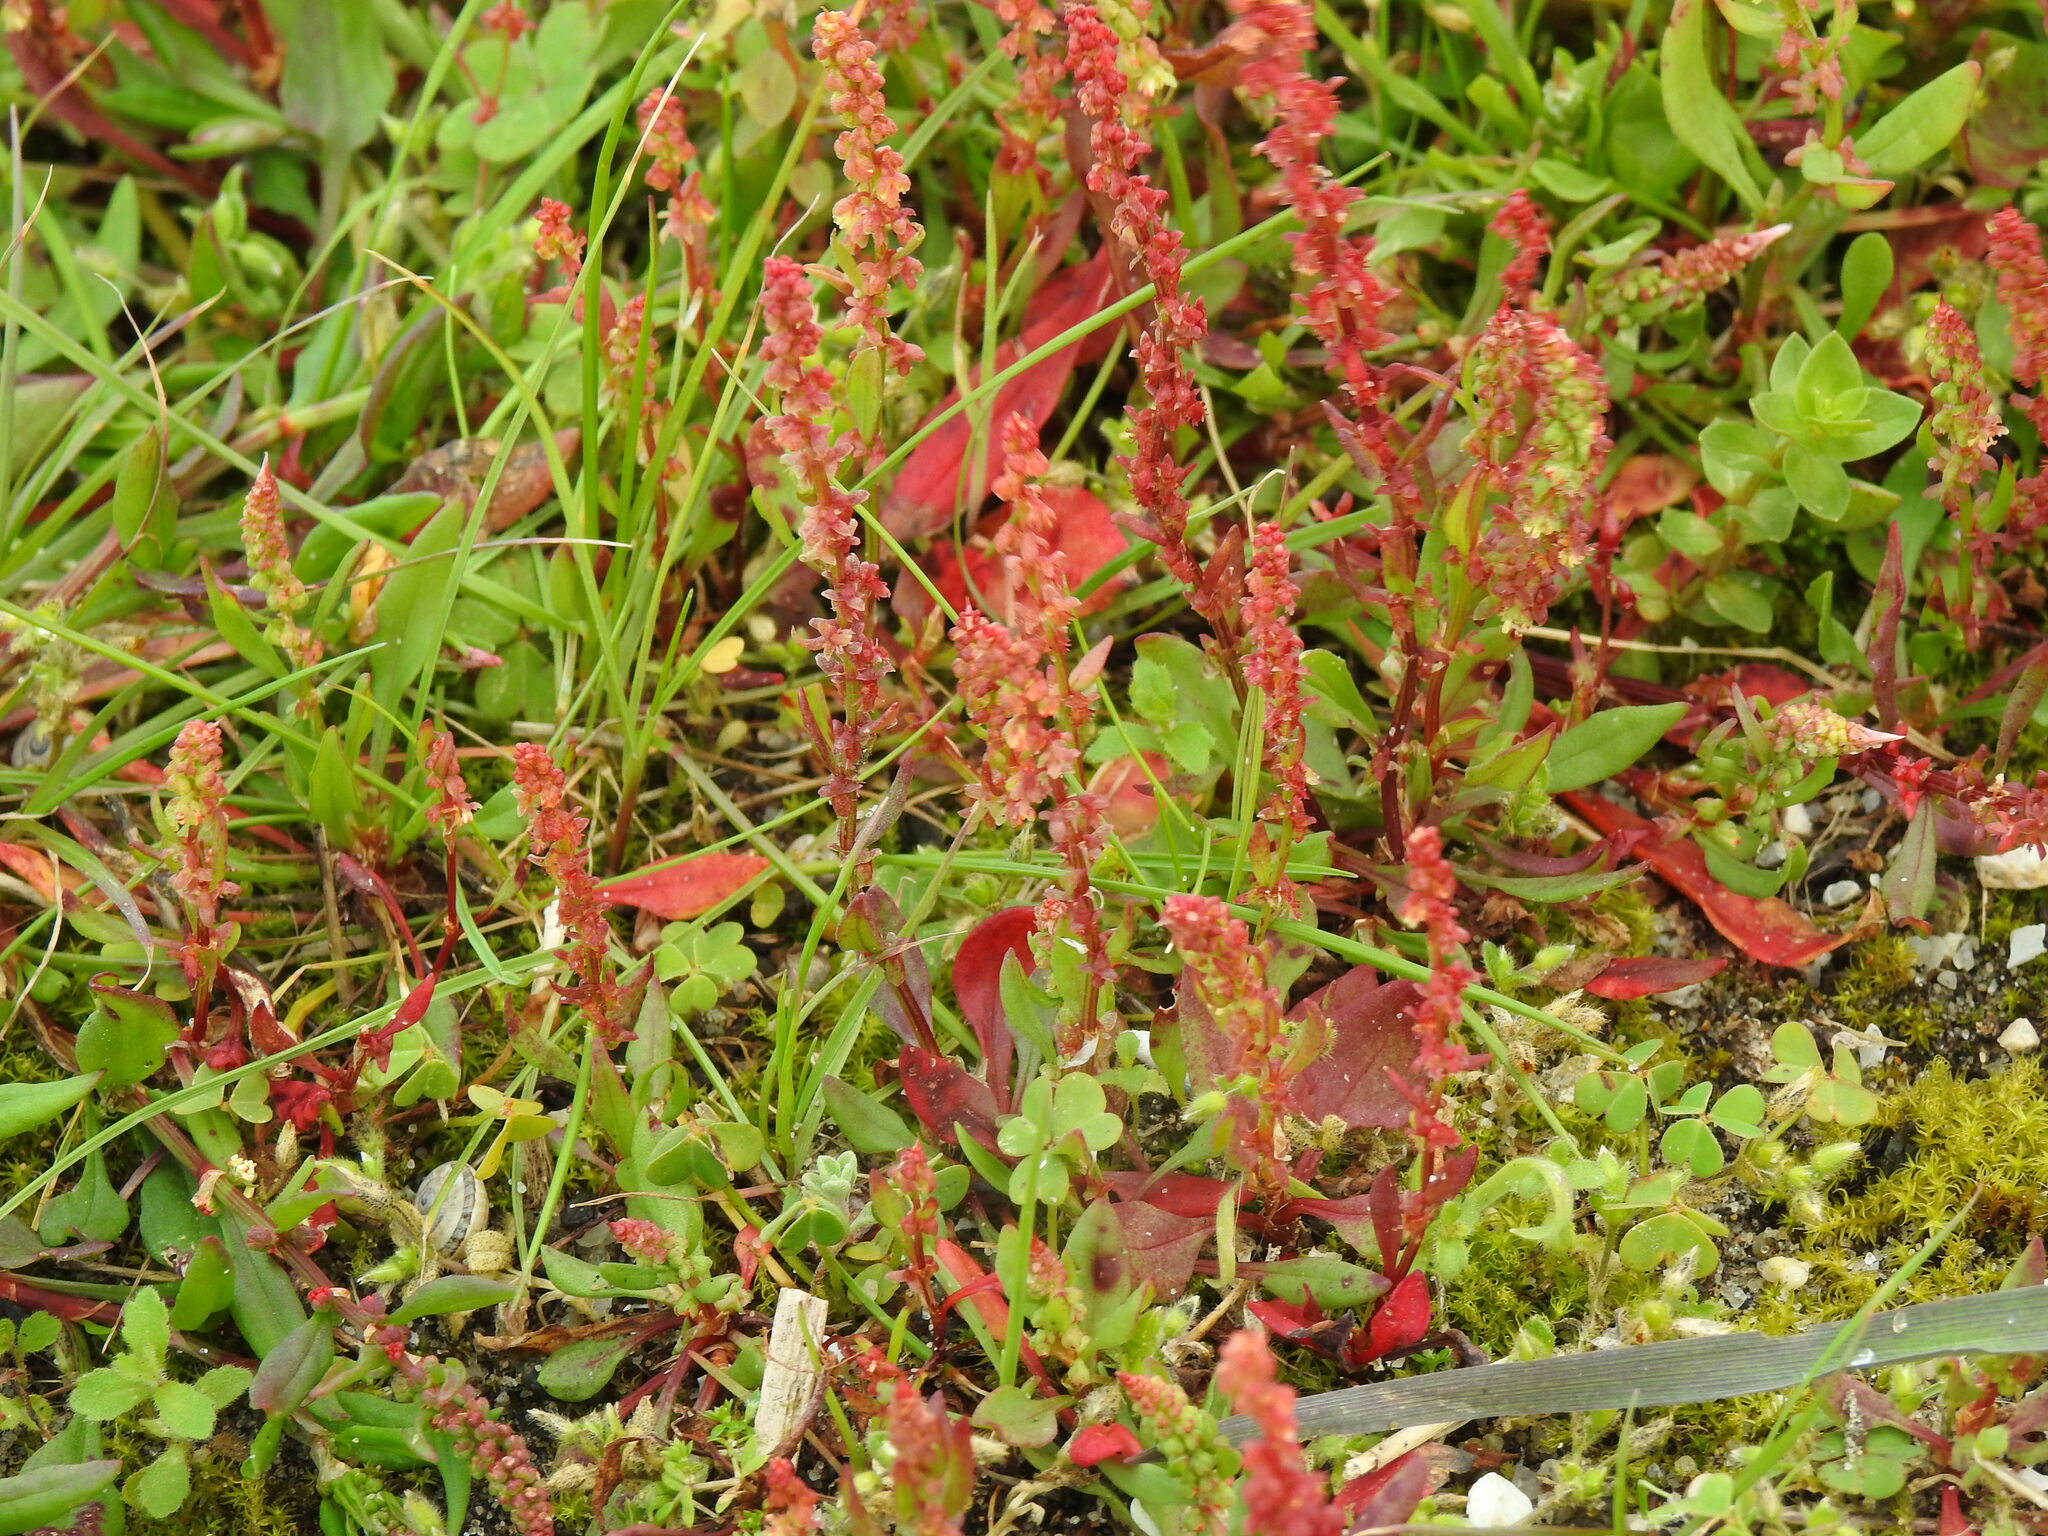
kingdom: Plantae
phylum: Tracheophyta
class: Magnoliopsida
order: Caryophyllales
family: Polygonaceae
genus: Rumex
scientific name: Rumex bucephalophorus
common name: Red dock
